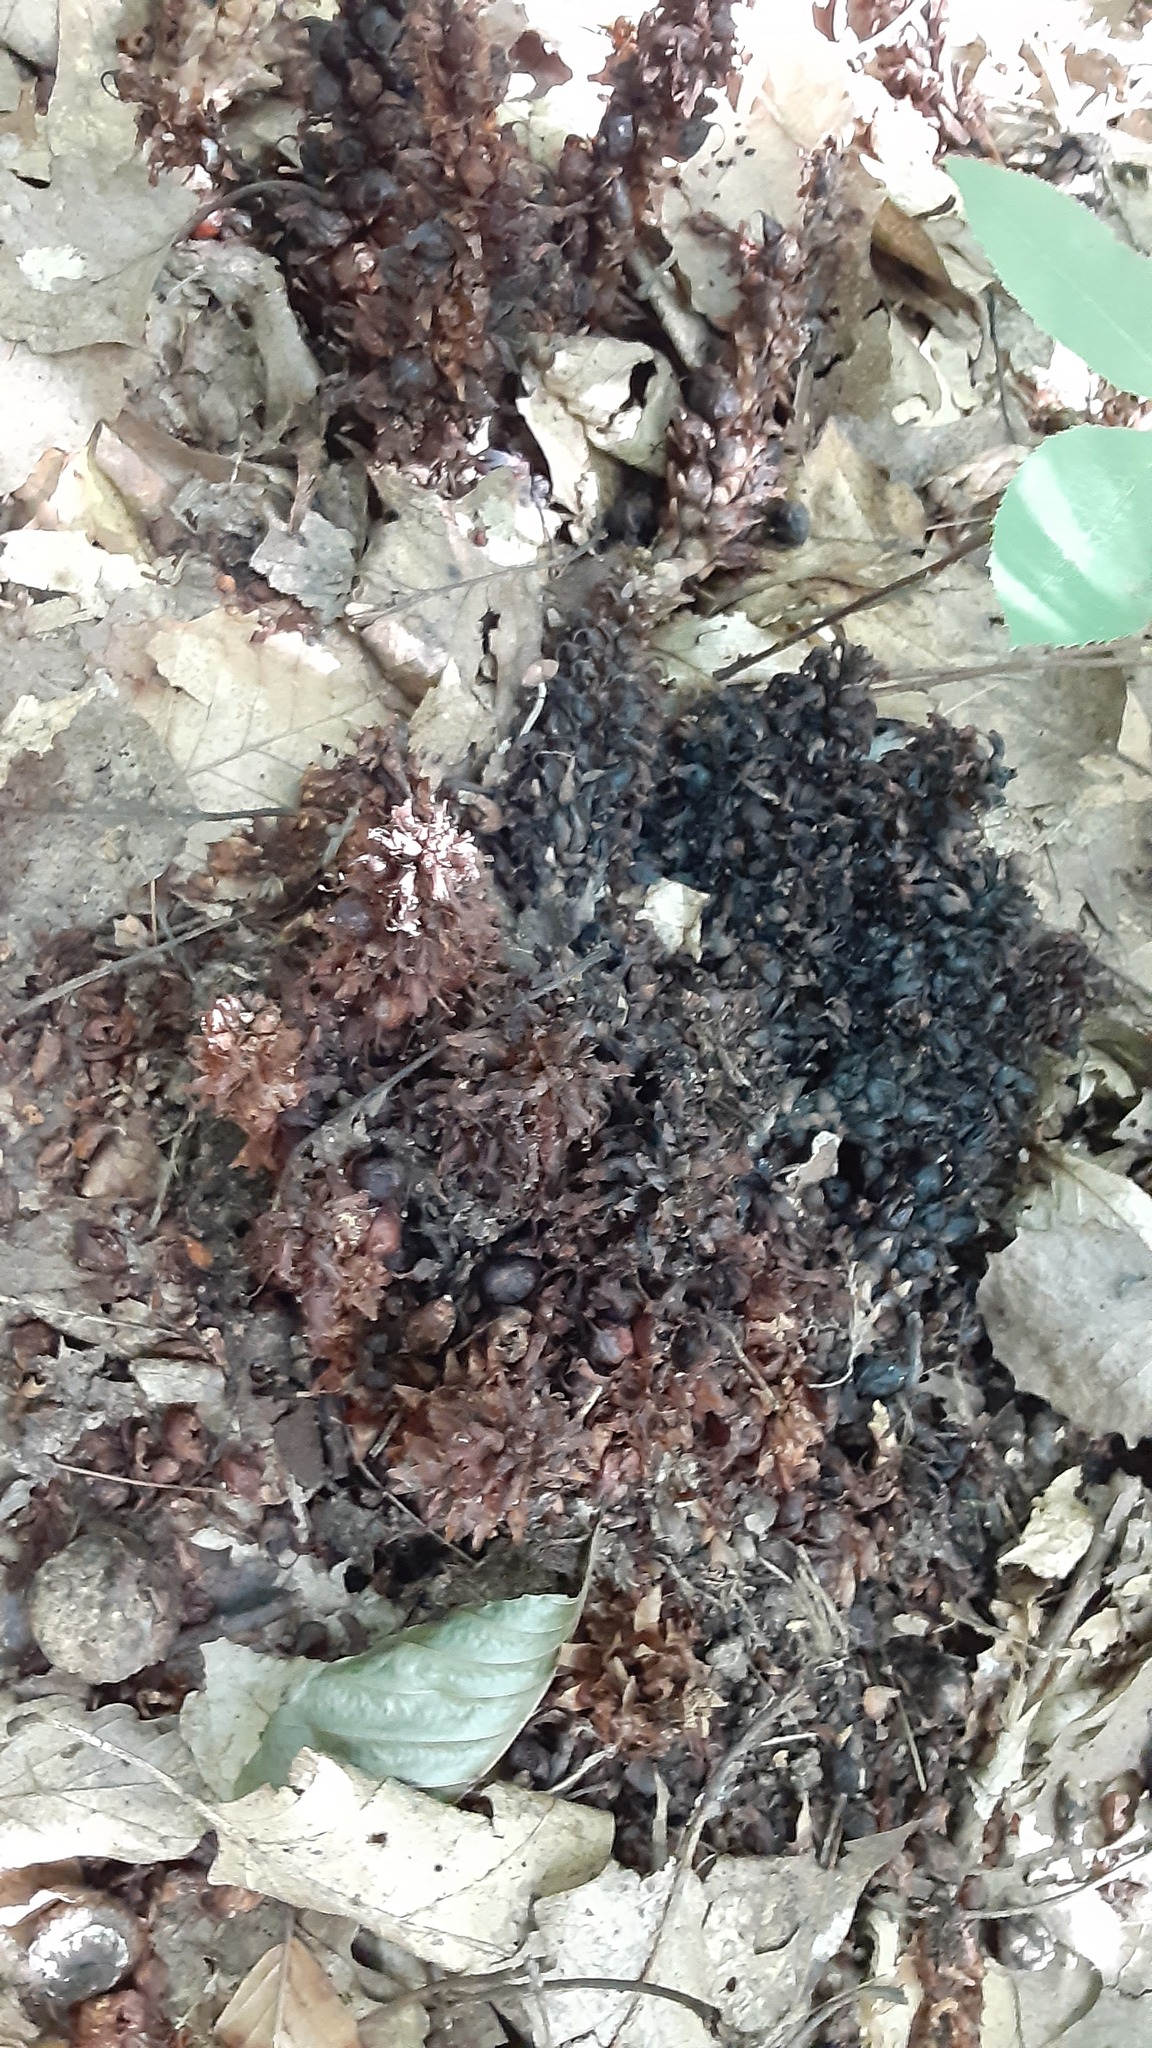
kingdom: Plantae
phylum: Tracheophyta
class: Magnoliopsida
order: Lamiales
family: Orobanchaceae
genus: Conopholis
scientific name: Conopholis americana
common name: American cancer-root
